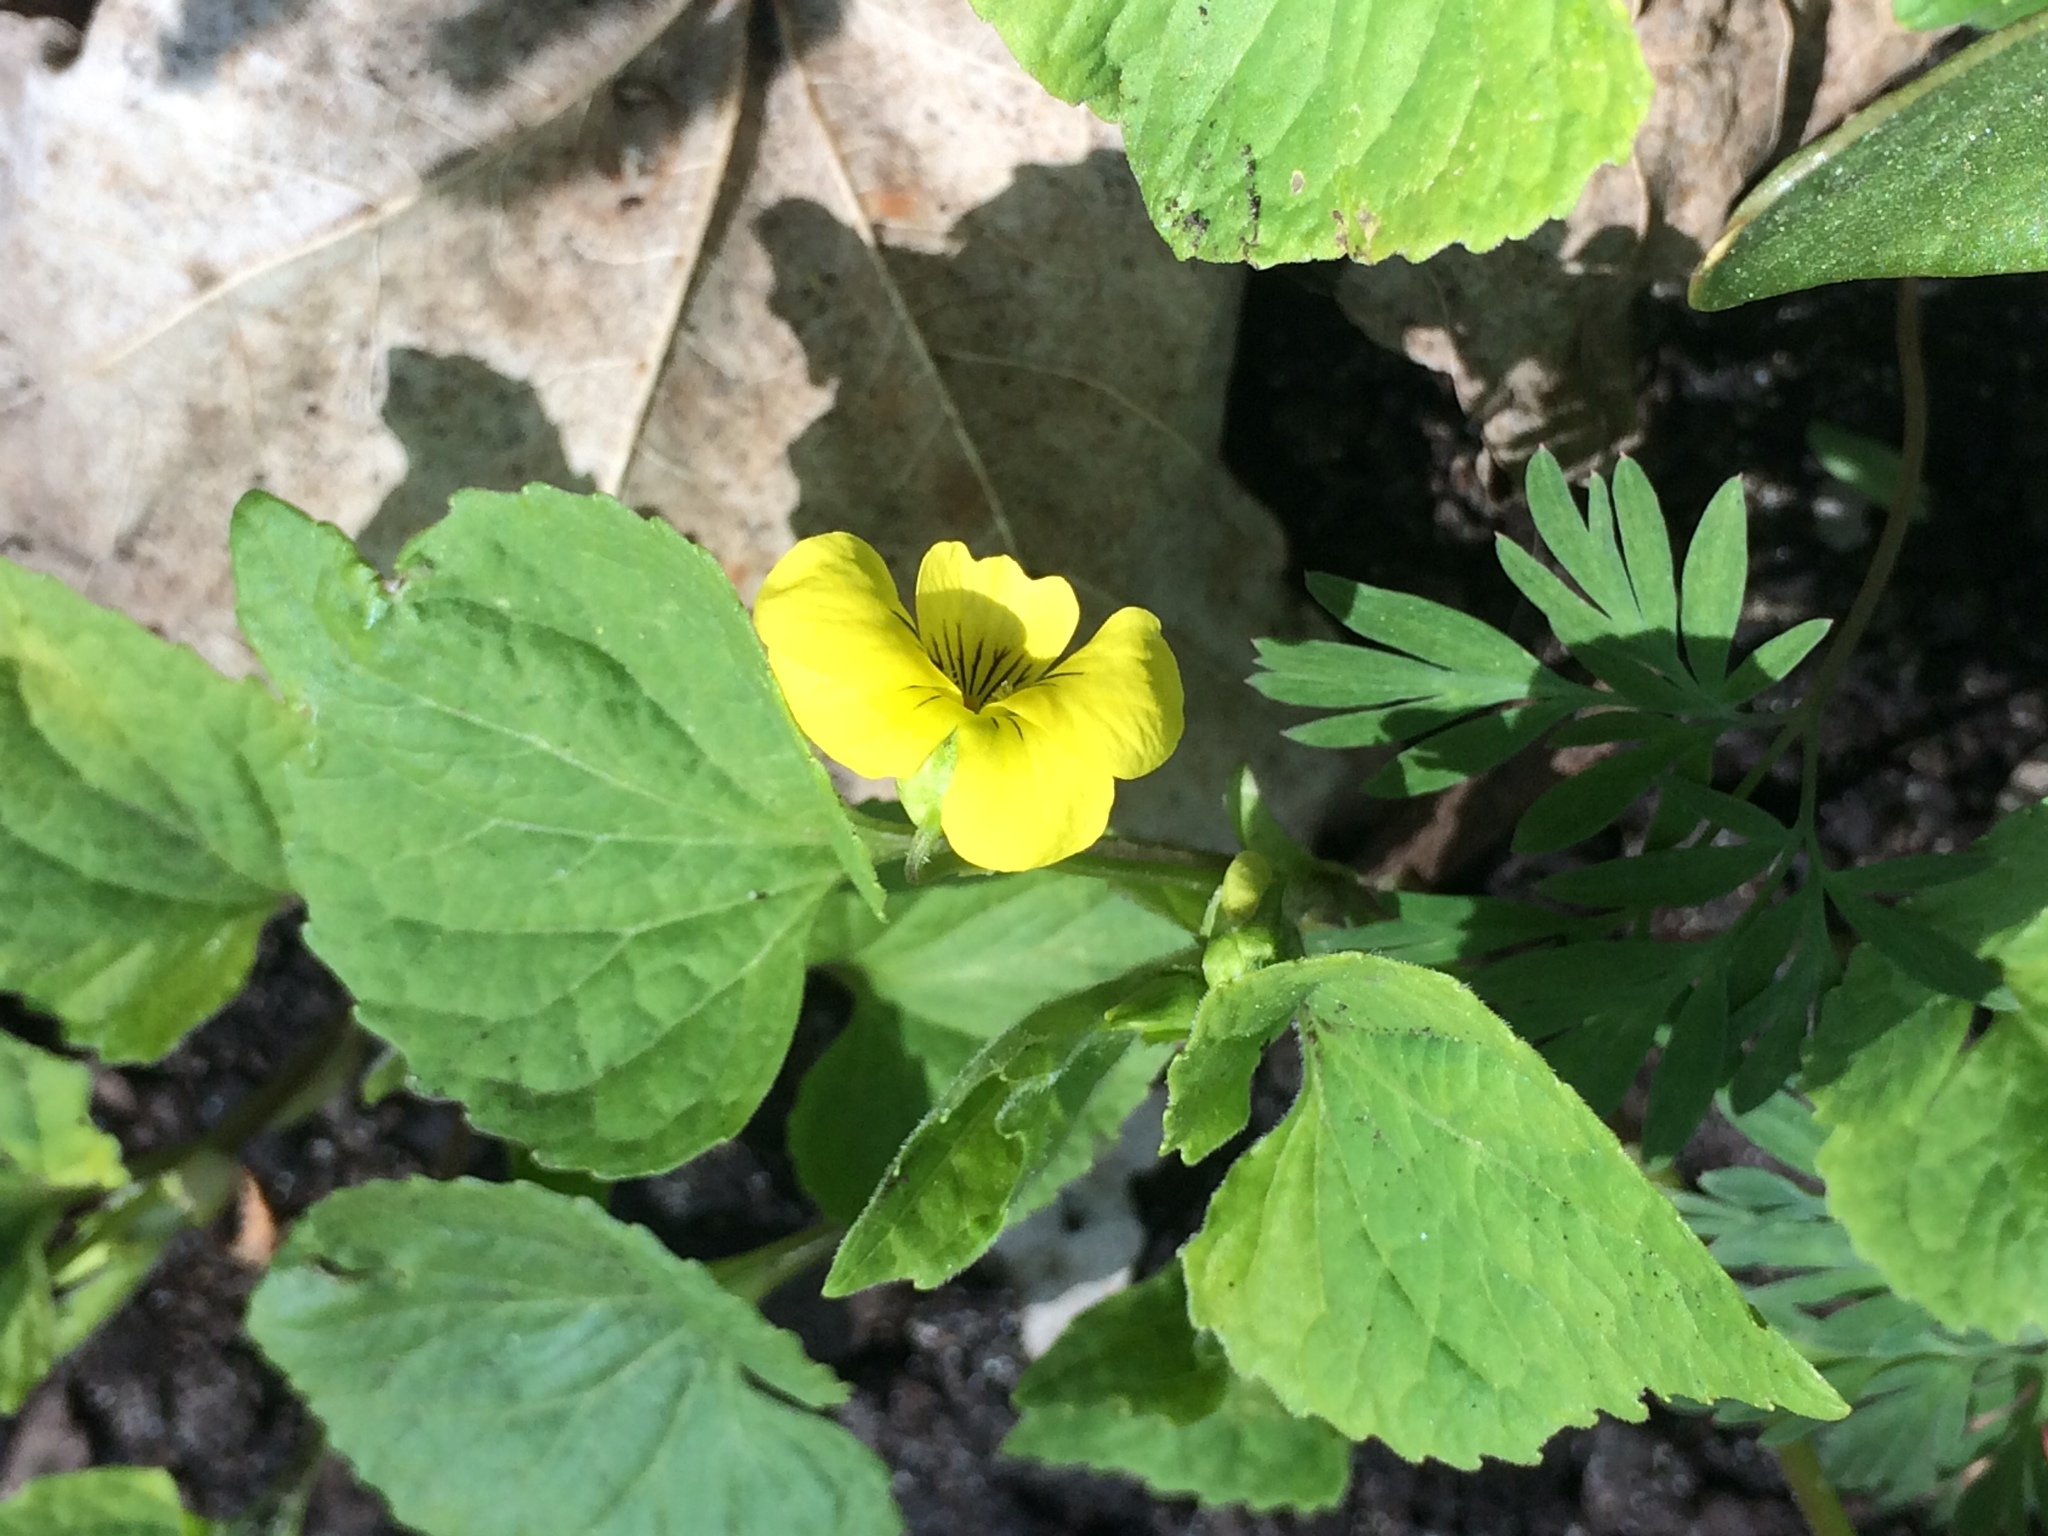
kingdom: Plantae
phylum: Tracheophyta
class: Magnoliopsida
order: Malpighiales
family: Violaceae
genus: Viola
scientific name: Viola eriocarpa
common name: Smooth yellow violet
